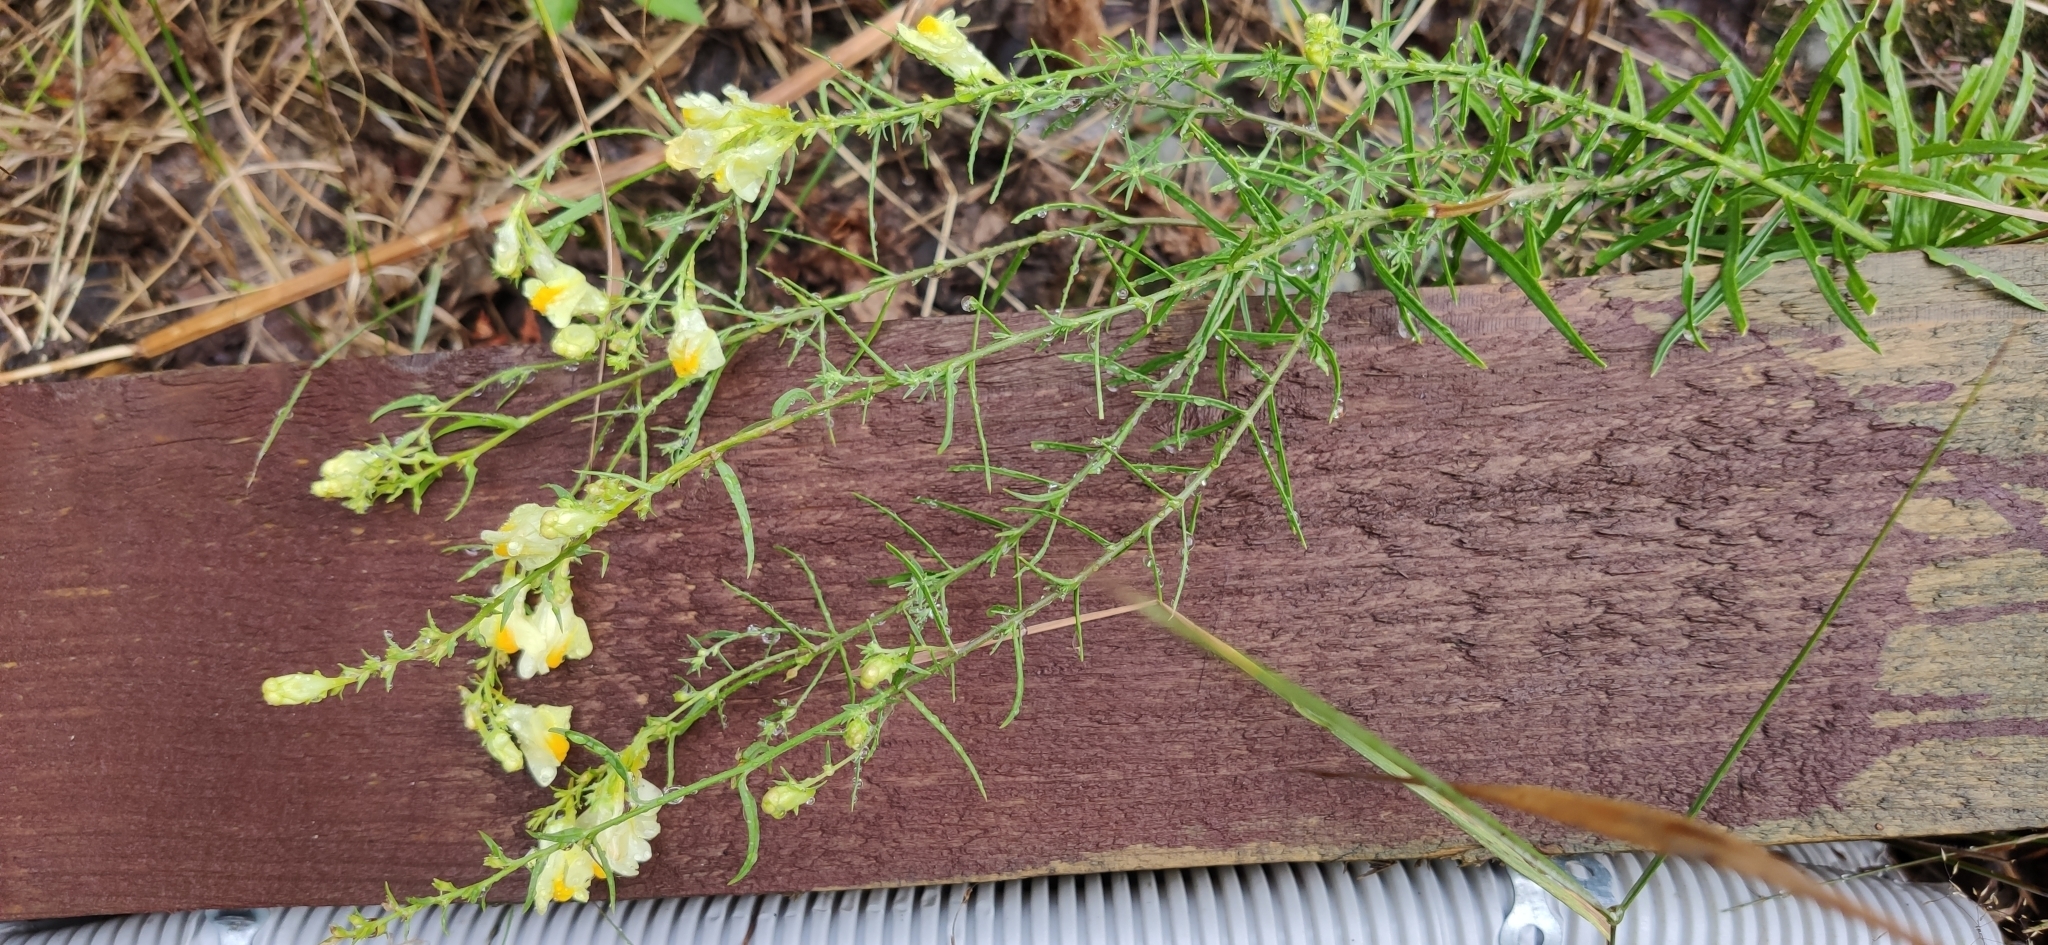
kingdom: Plantae
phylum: Tracheophyta
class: Magnoliopsida
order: Lamiales
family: Plantaginaceae
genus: Linaria
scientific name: Linaria vulgaris
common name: Butter and eggs
